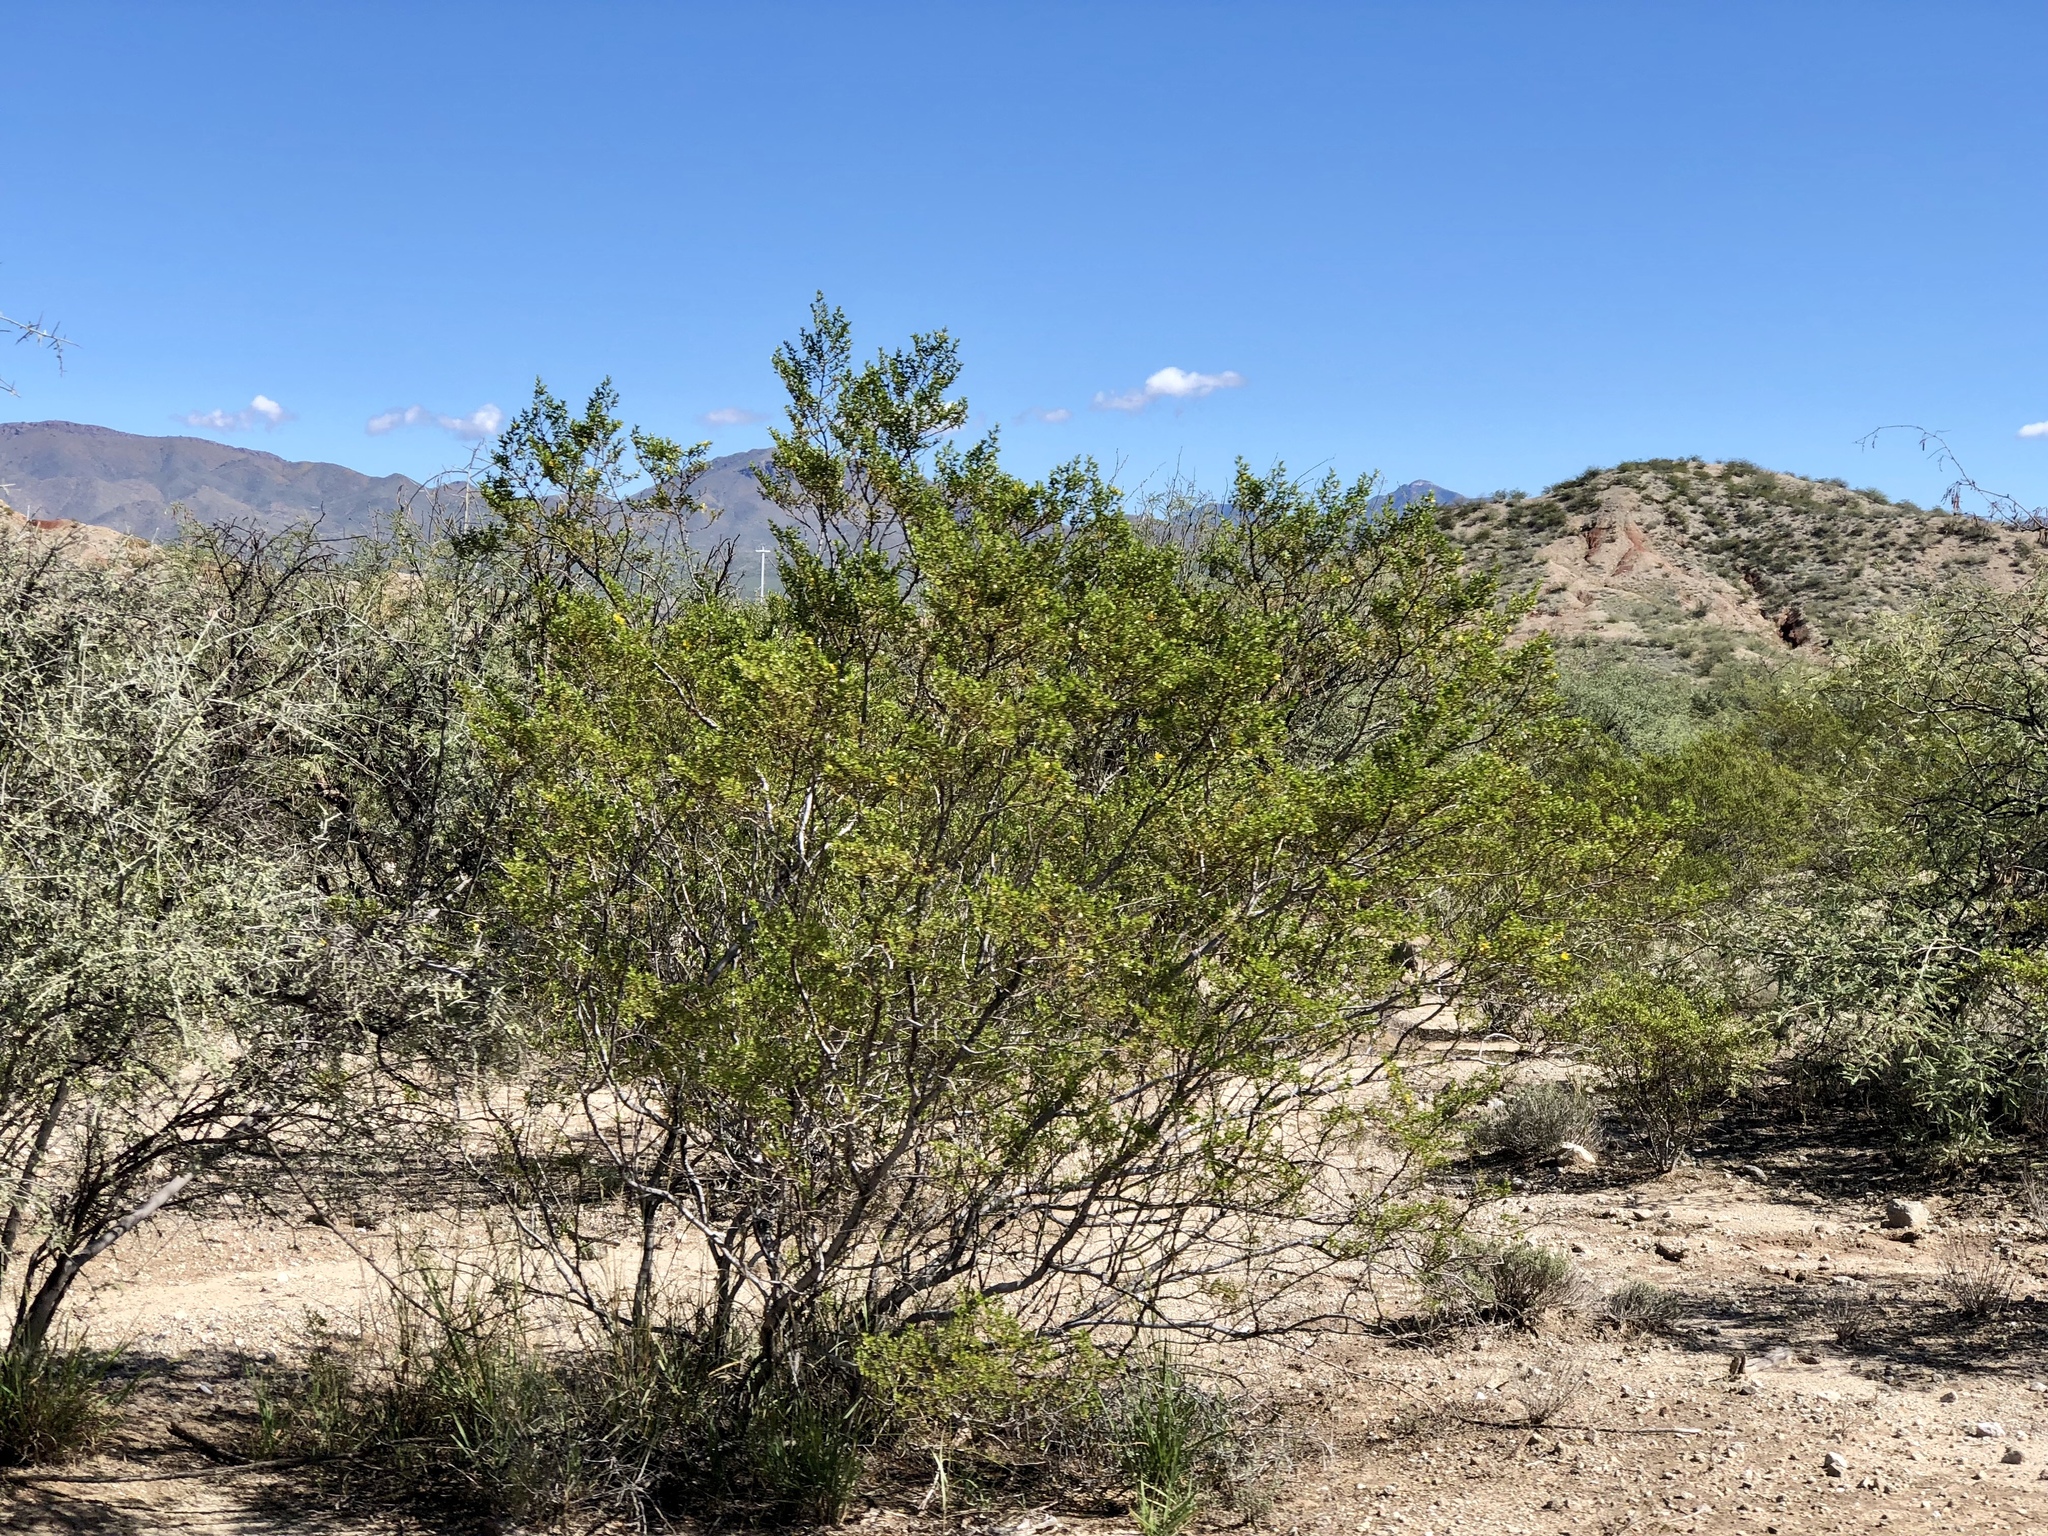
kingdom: Plantae
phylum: Tracheophyta
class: Magnoliopsida
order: Zygophyllales
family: Zygophyllaceae
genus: Larrea
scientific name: Larrea tridentata
